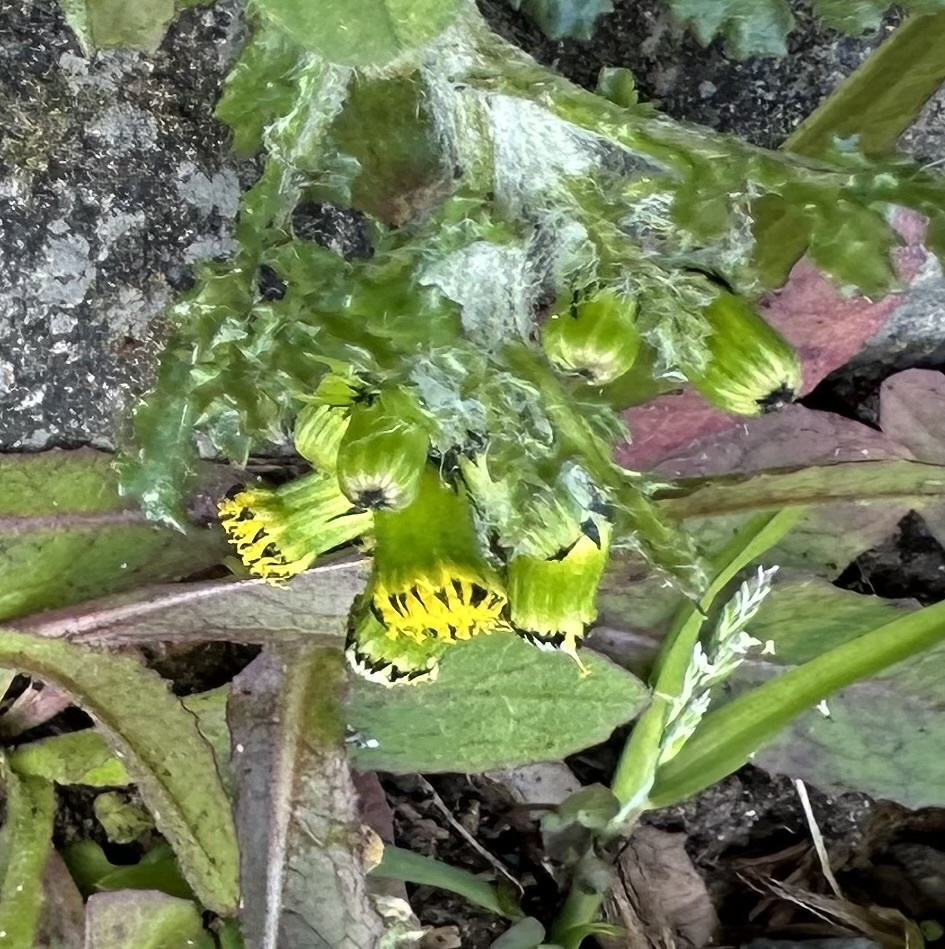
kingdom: Plantae
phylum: Tracheophyta
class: Magnoliopsida
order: Asterales
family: Asteraceae
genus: Senecio
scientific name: Senecio vulgaris
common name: Old-man-in-the-spring
